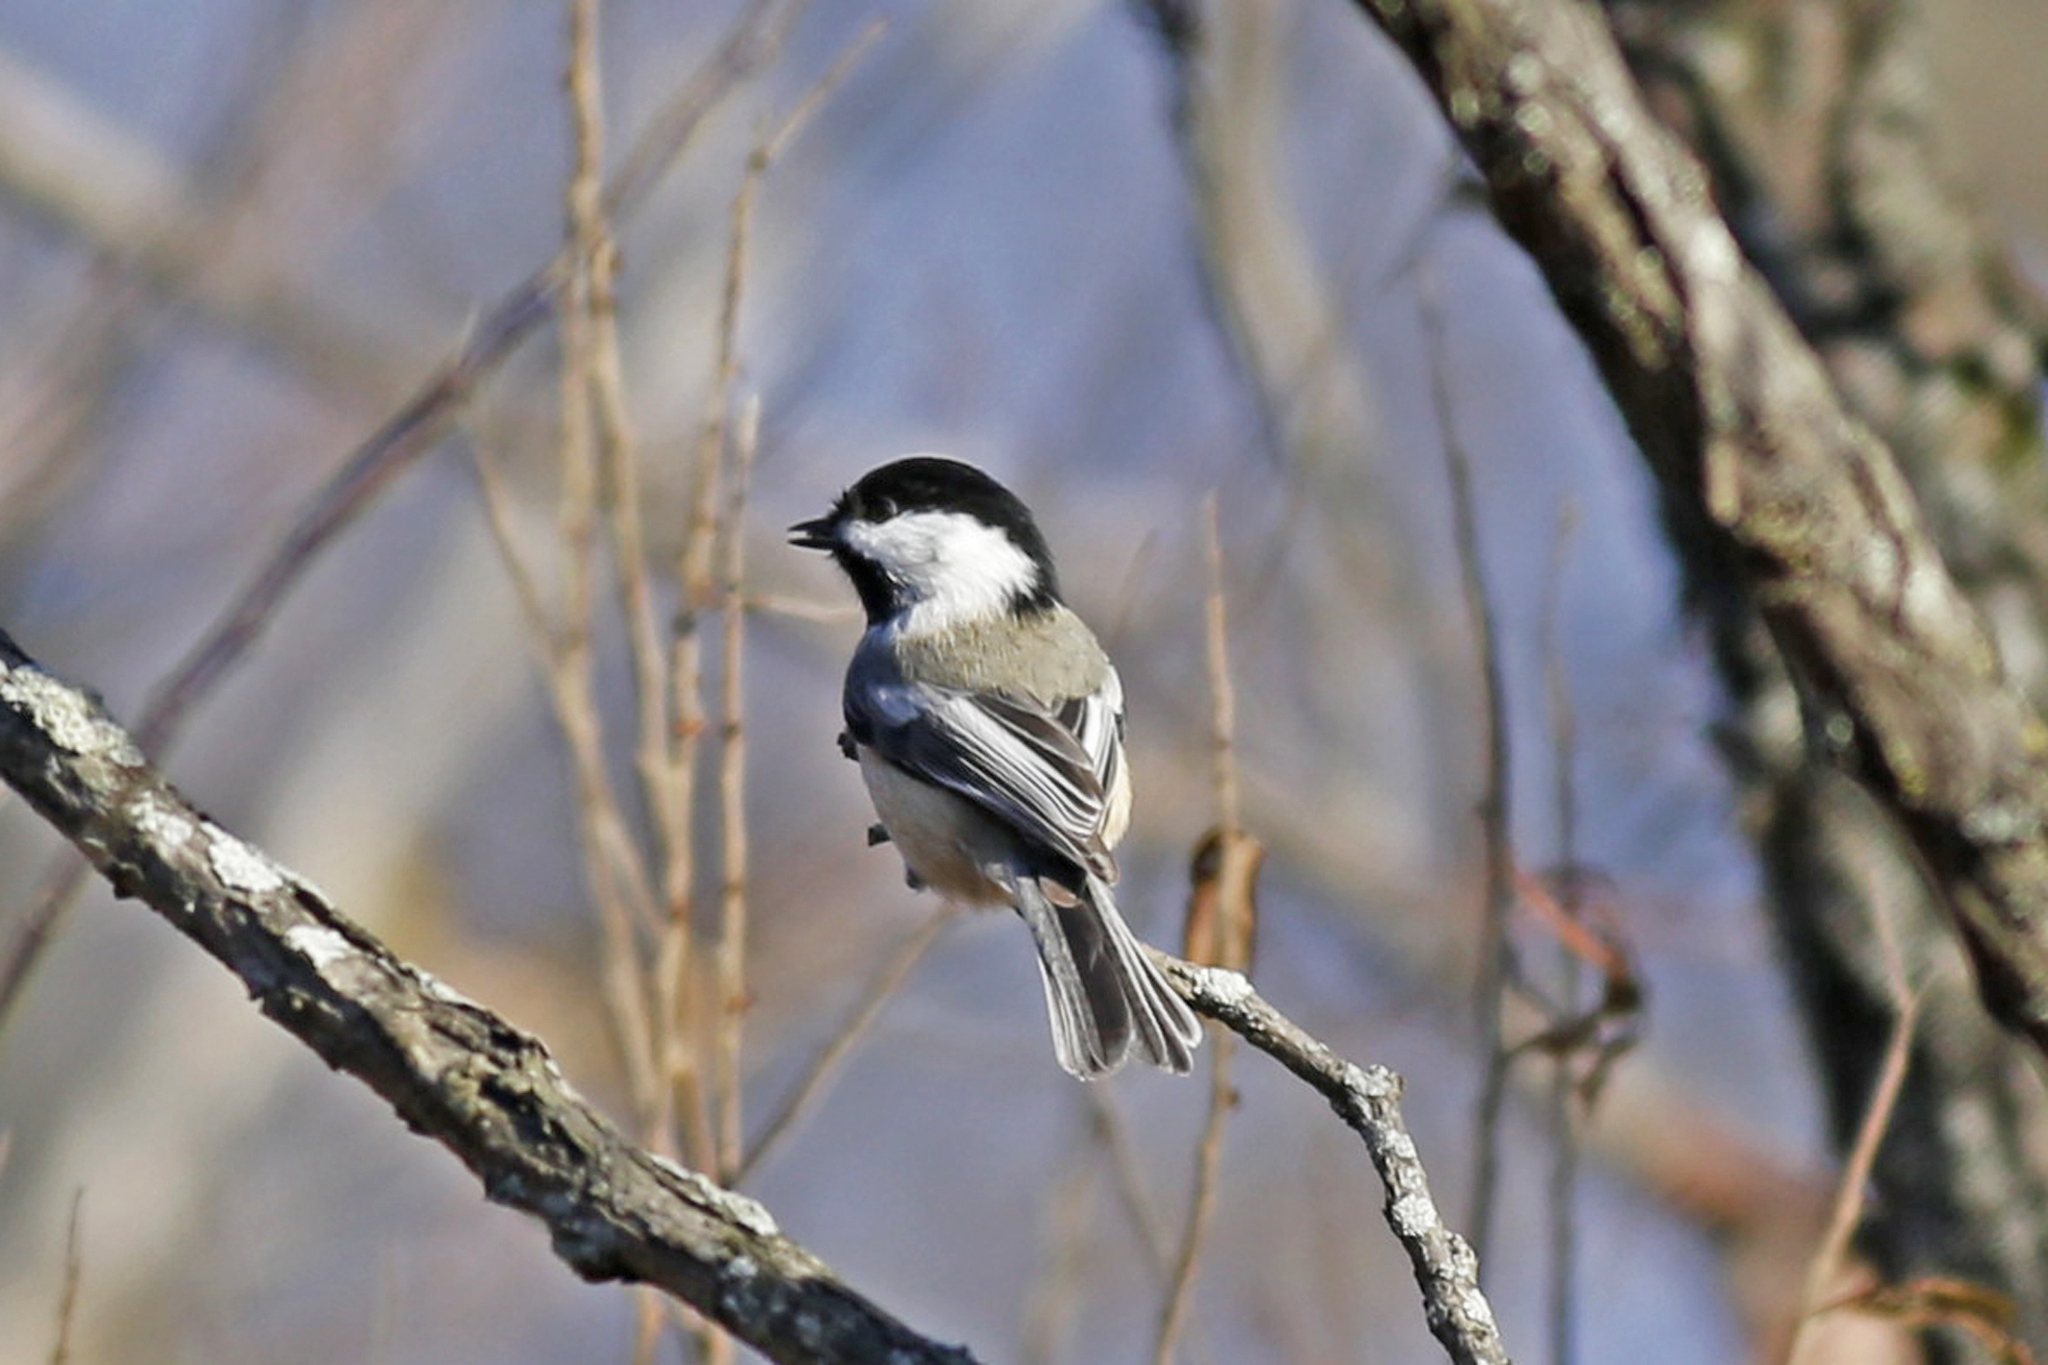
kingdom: Animalia
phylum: Chordata
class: Aves
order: Passeriformes
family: Paridae
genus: Poecile
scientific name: Poecile atricapillus
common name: Black-capped chickadee
